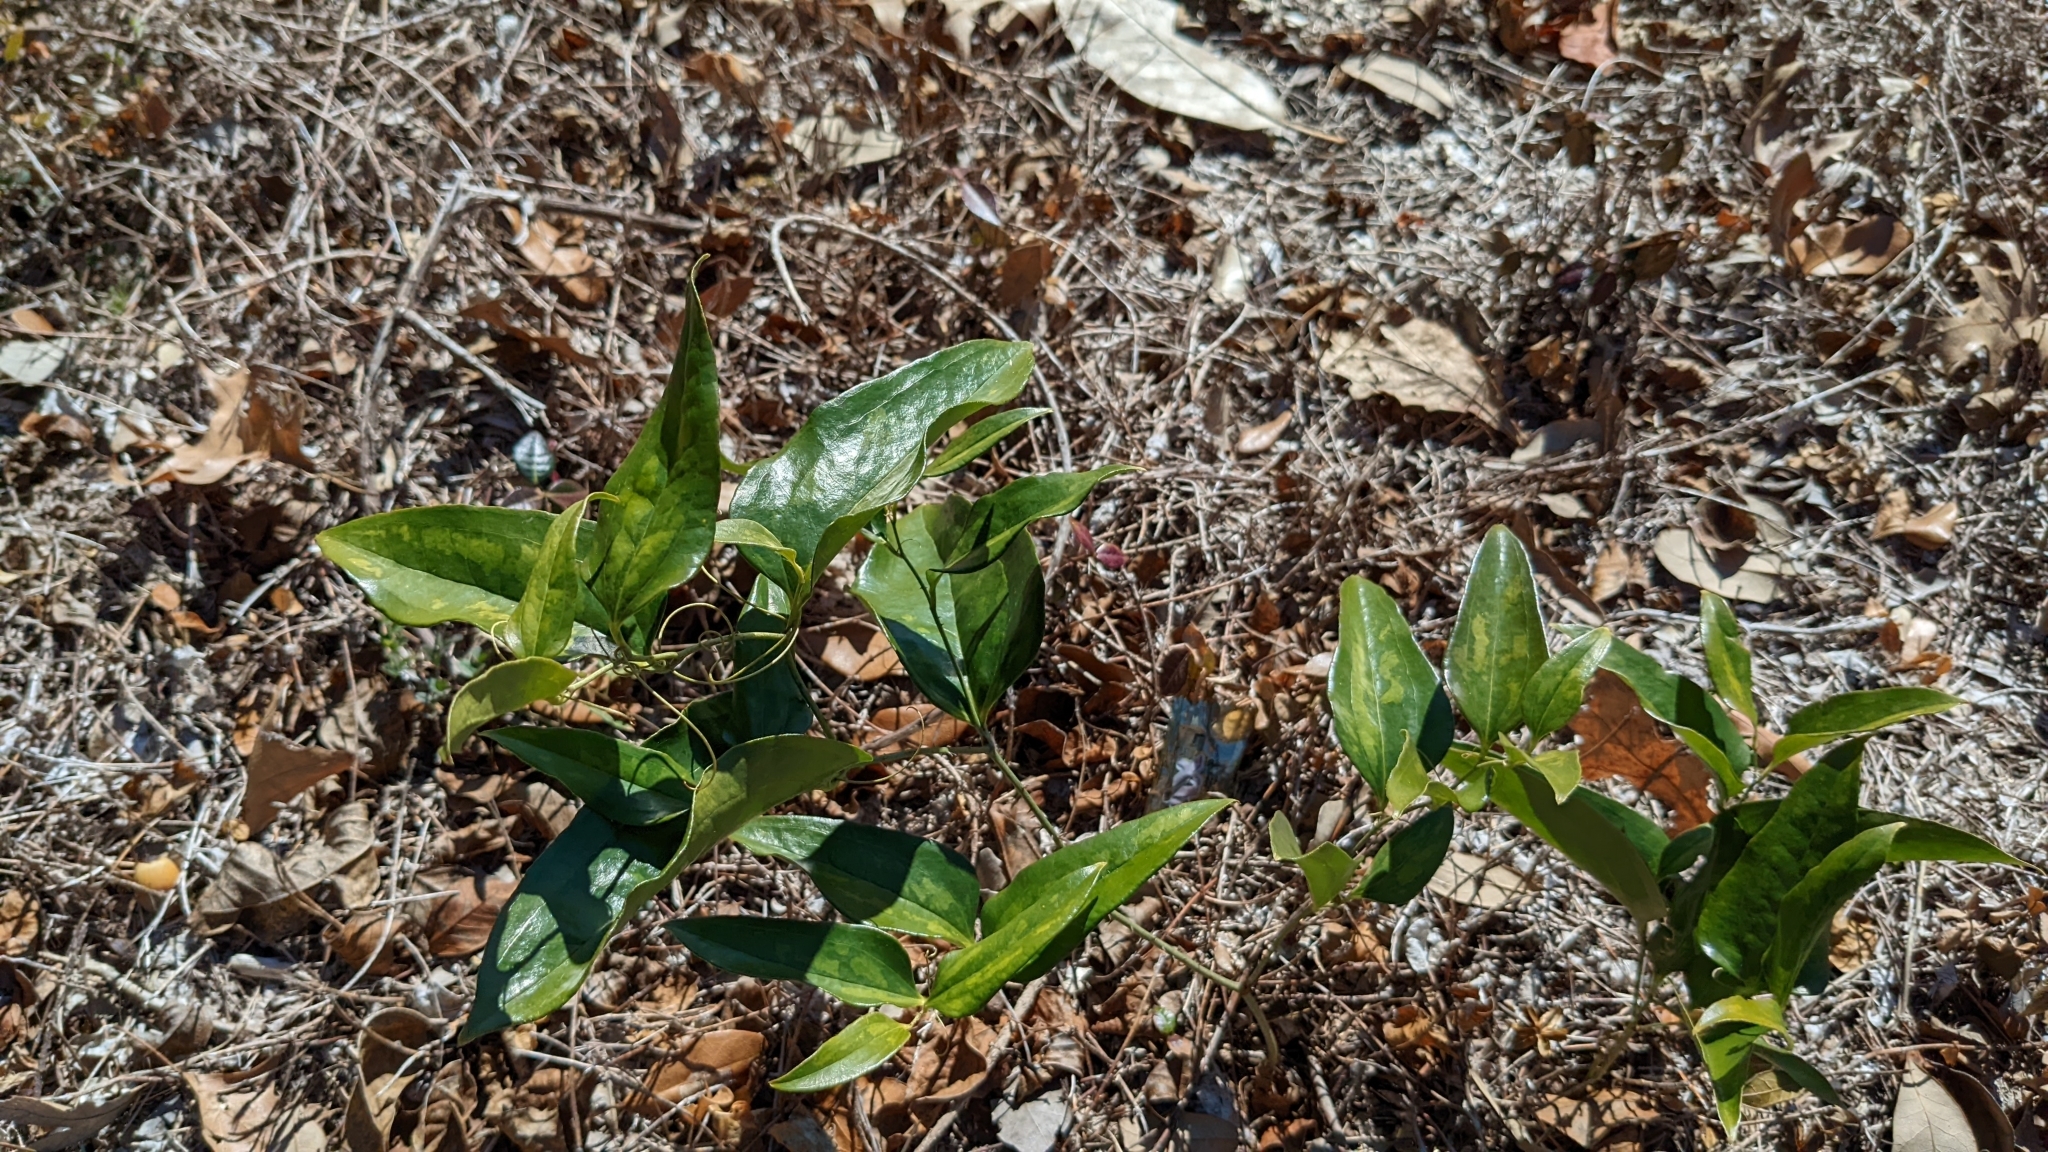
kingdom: Plantae
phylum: Tracheophyta
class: Liliopsida
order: Liliales
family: Smilacaceae
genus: Smilax
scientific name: Smilax maritima
